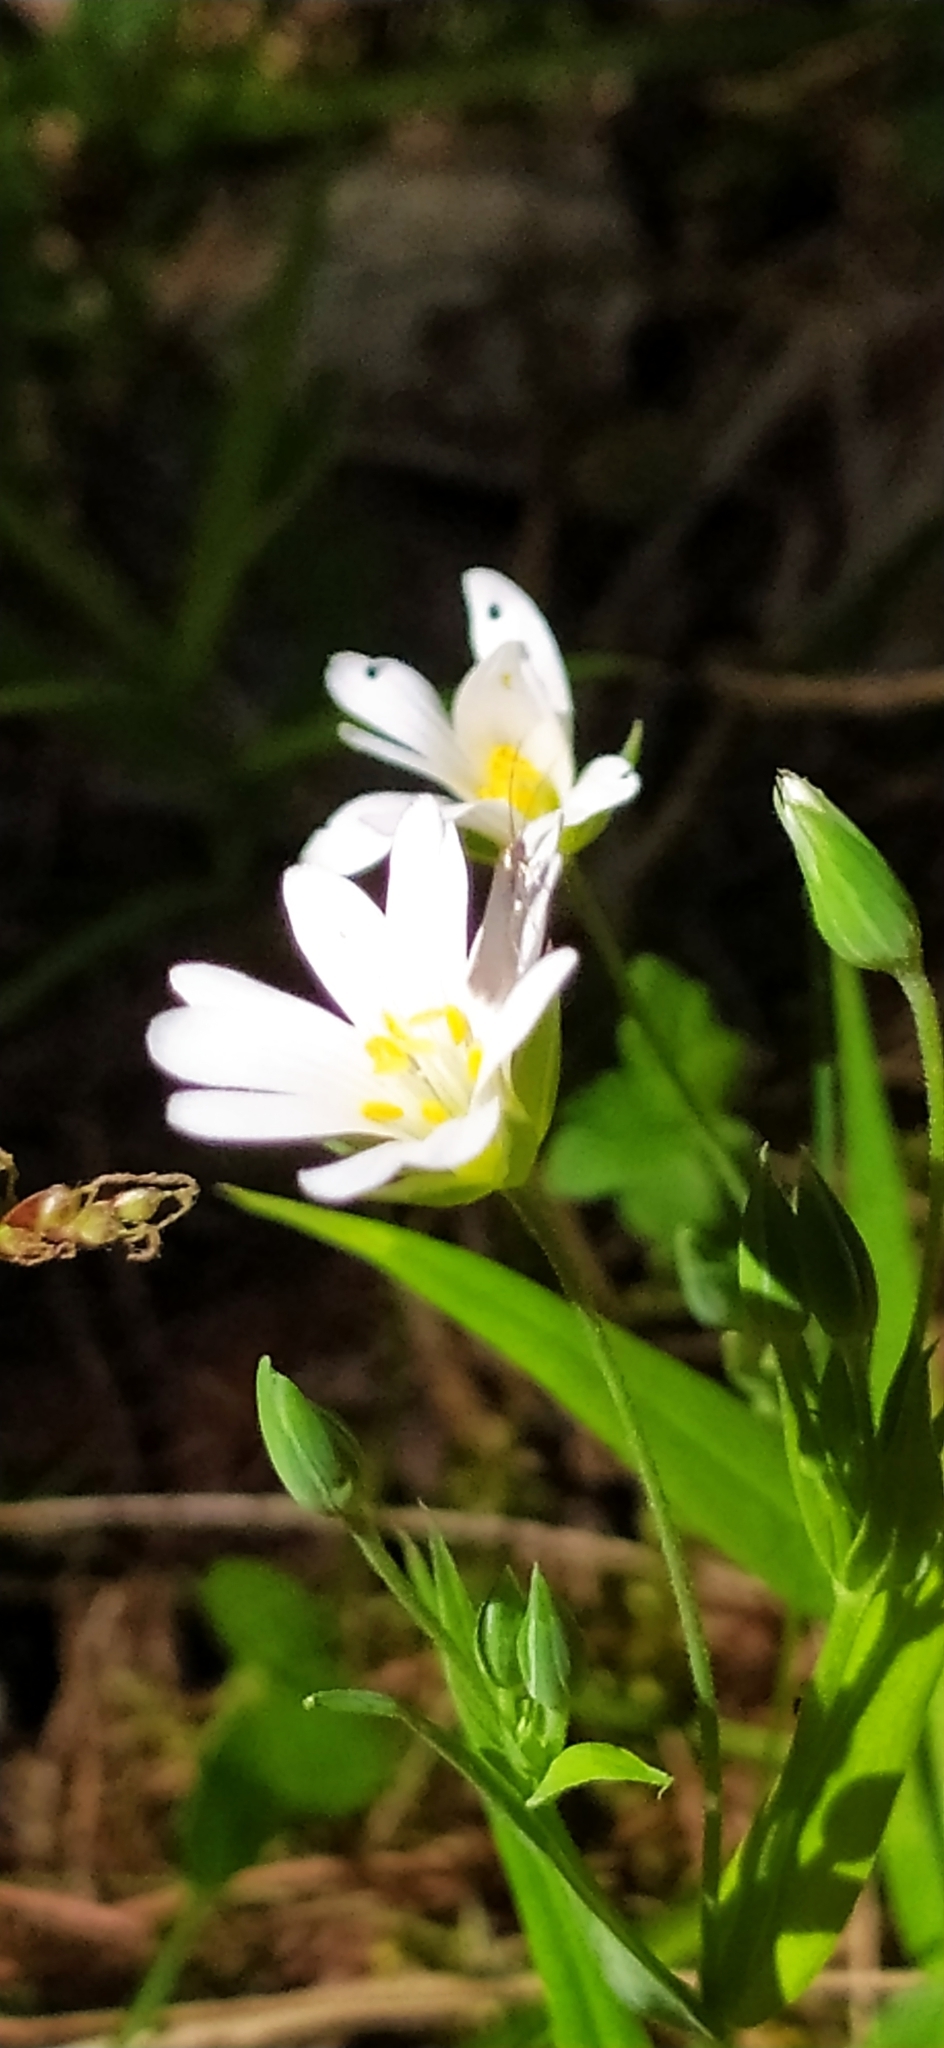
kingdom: Plantae
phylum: Tracheophyta
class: Magnoliopsida
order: Caryophyllales
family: Caryophyllaceae
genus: Rabelera
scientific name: Rabelera holostea
